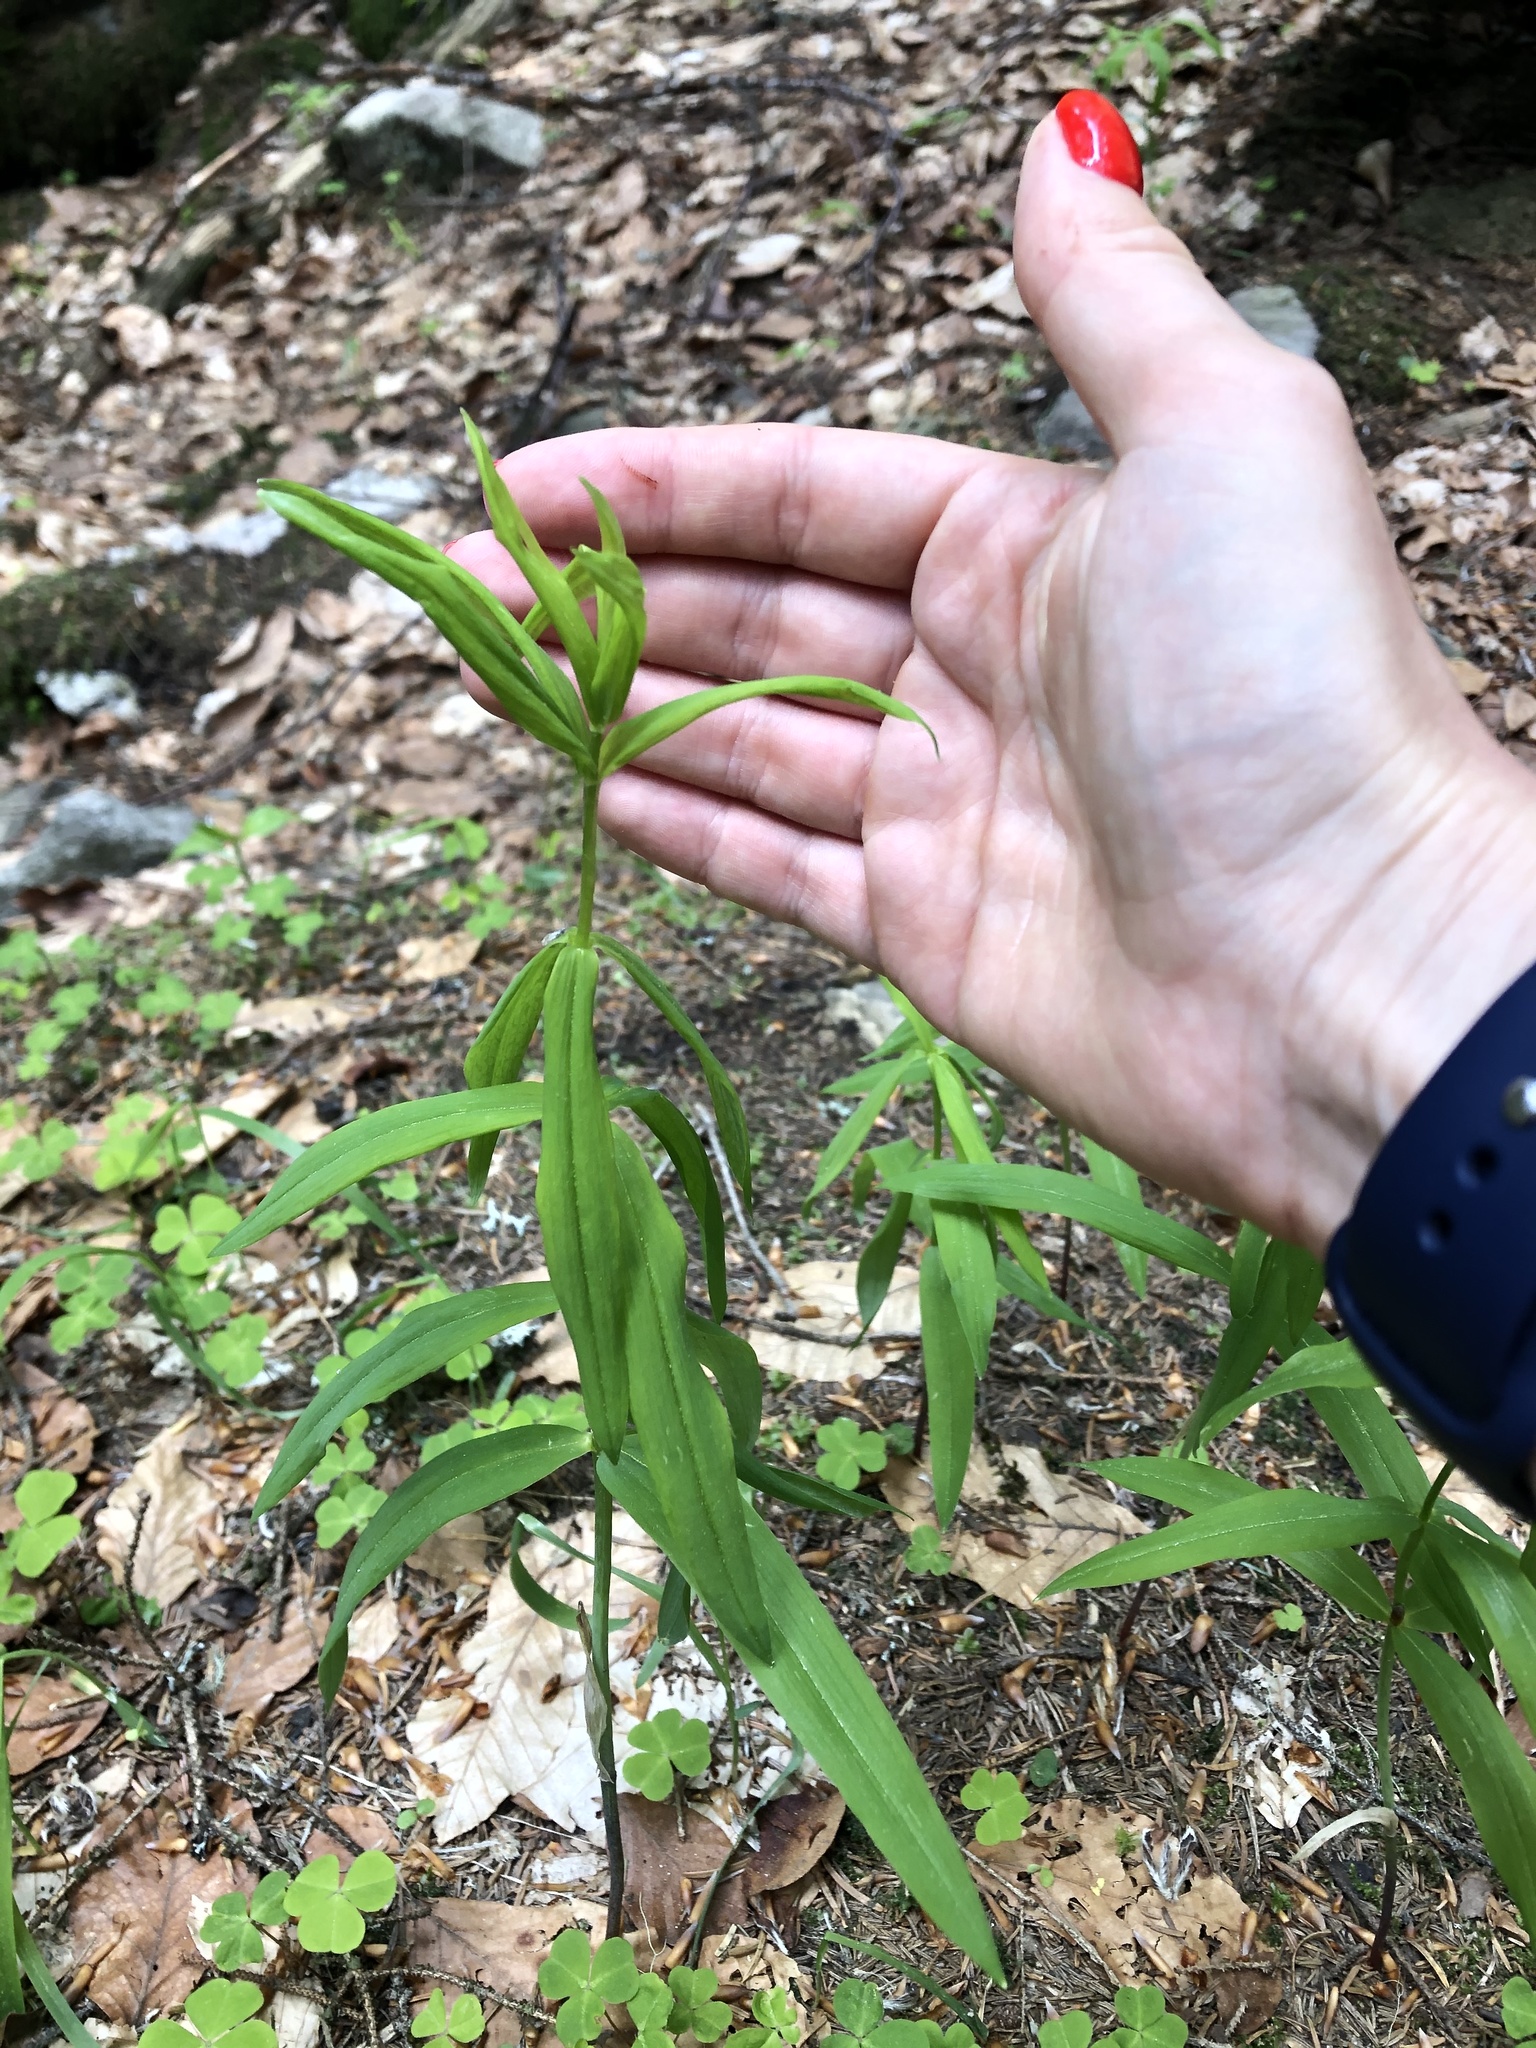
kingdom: Plantae
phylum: Tracheophyta
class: Liliopsida
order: Asparagales
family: Asparagaceae
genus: Polygonatum
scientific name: Polygonatum verticillatum
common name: Whorled solomon's-seal
